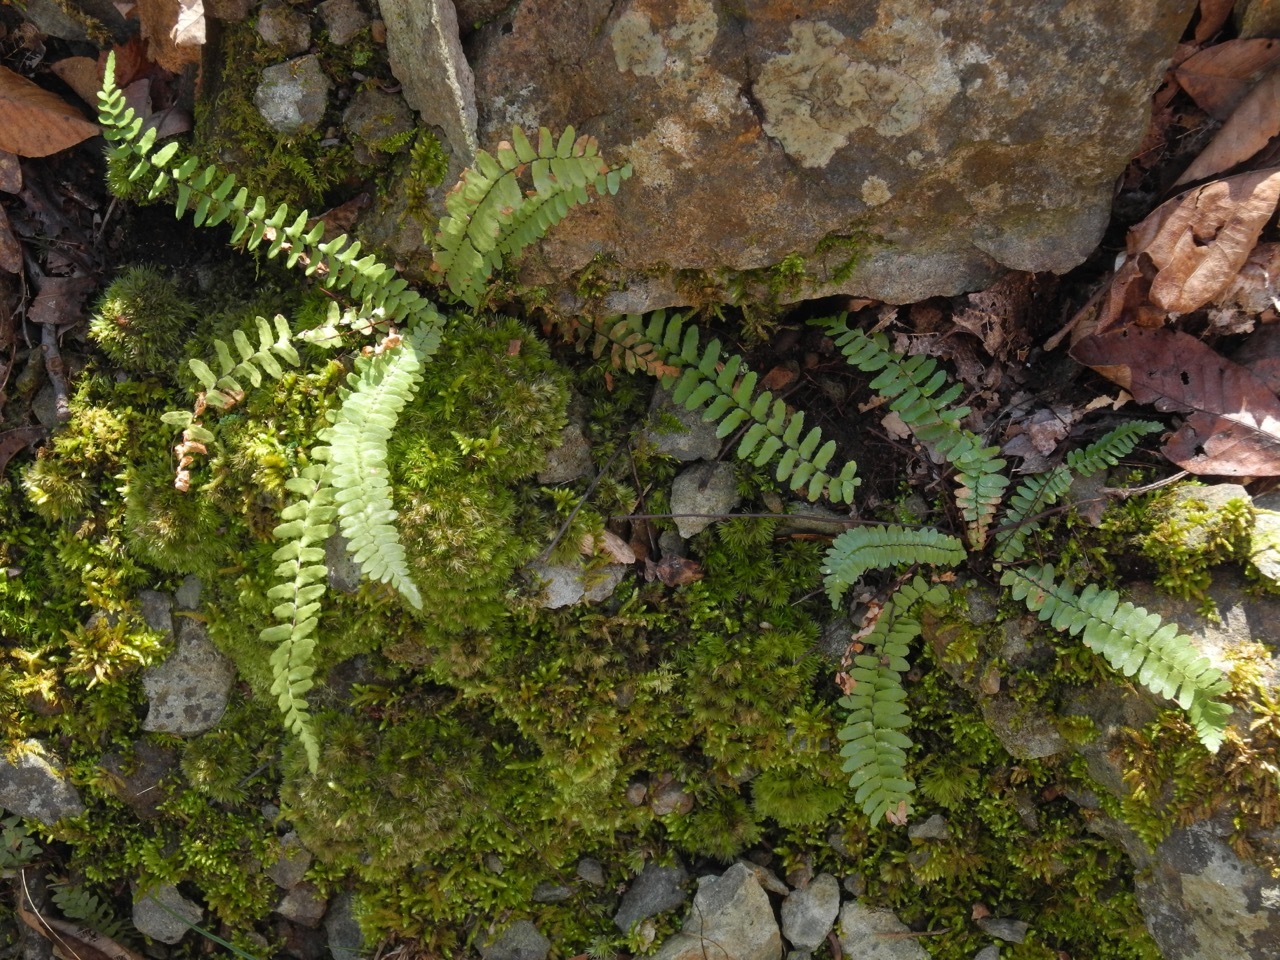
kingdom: Plantae
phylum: Tracheophyta
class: Polypodiopsida
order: Polypodiales
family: Aspleniaceae
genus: Asplenium
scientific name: Asplenium platyneuron
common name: Ebony spleenwort
